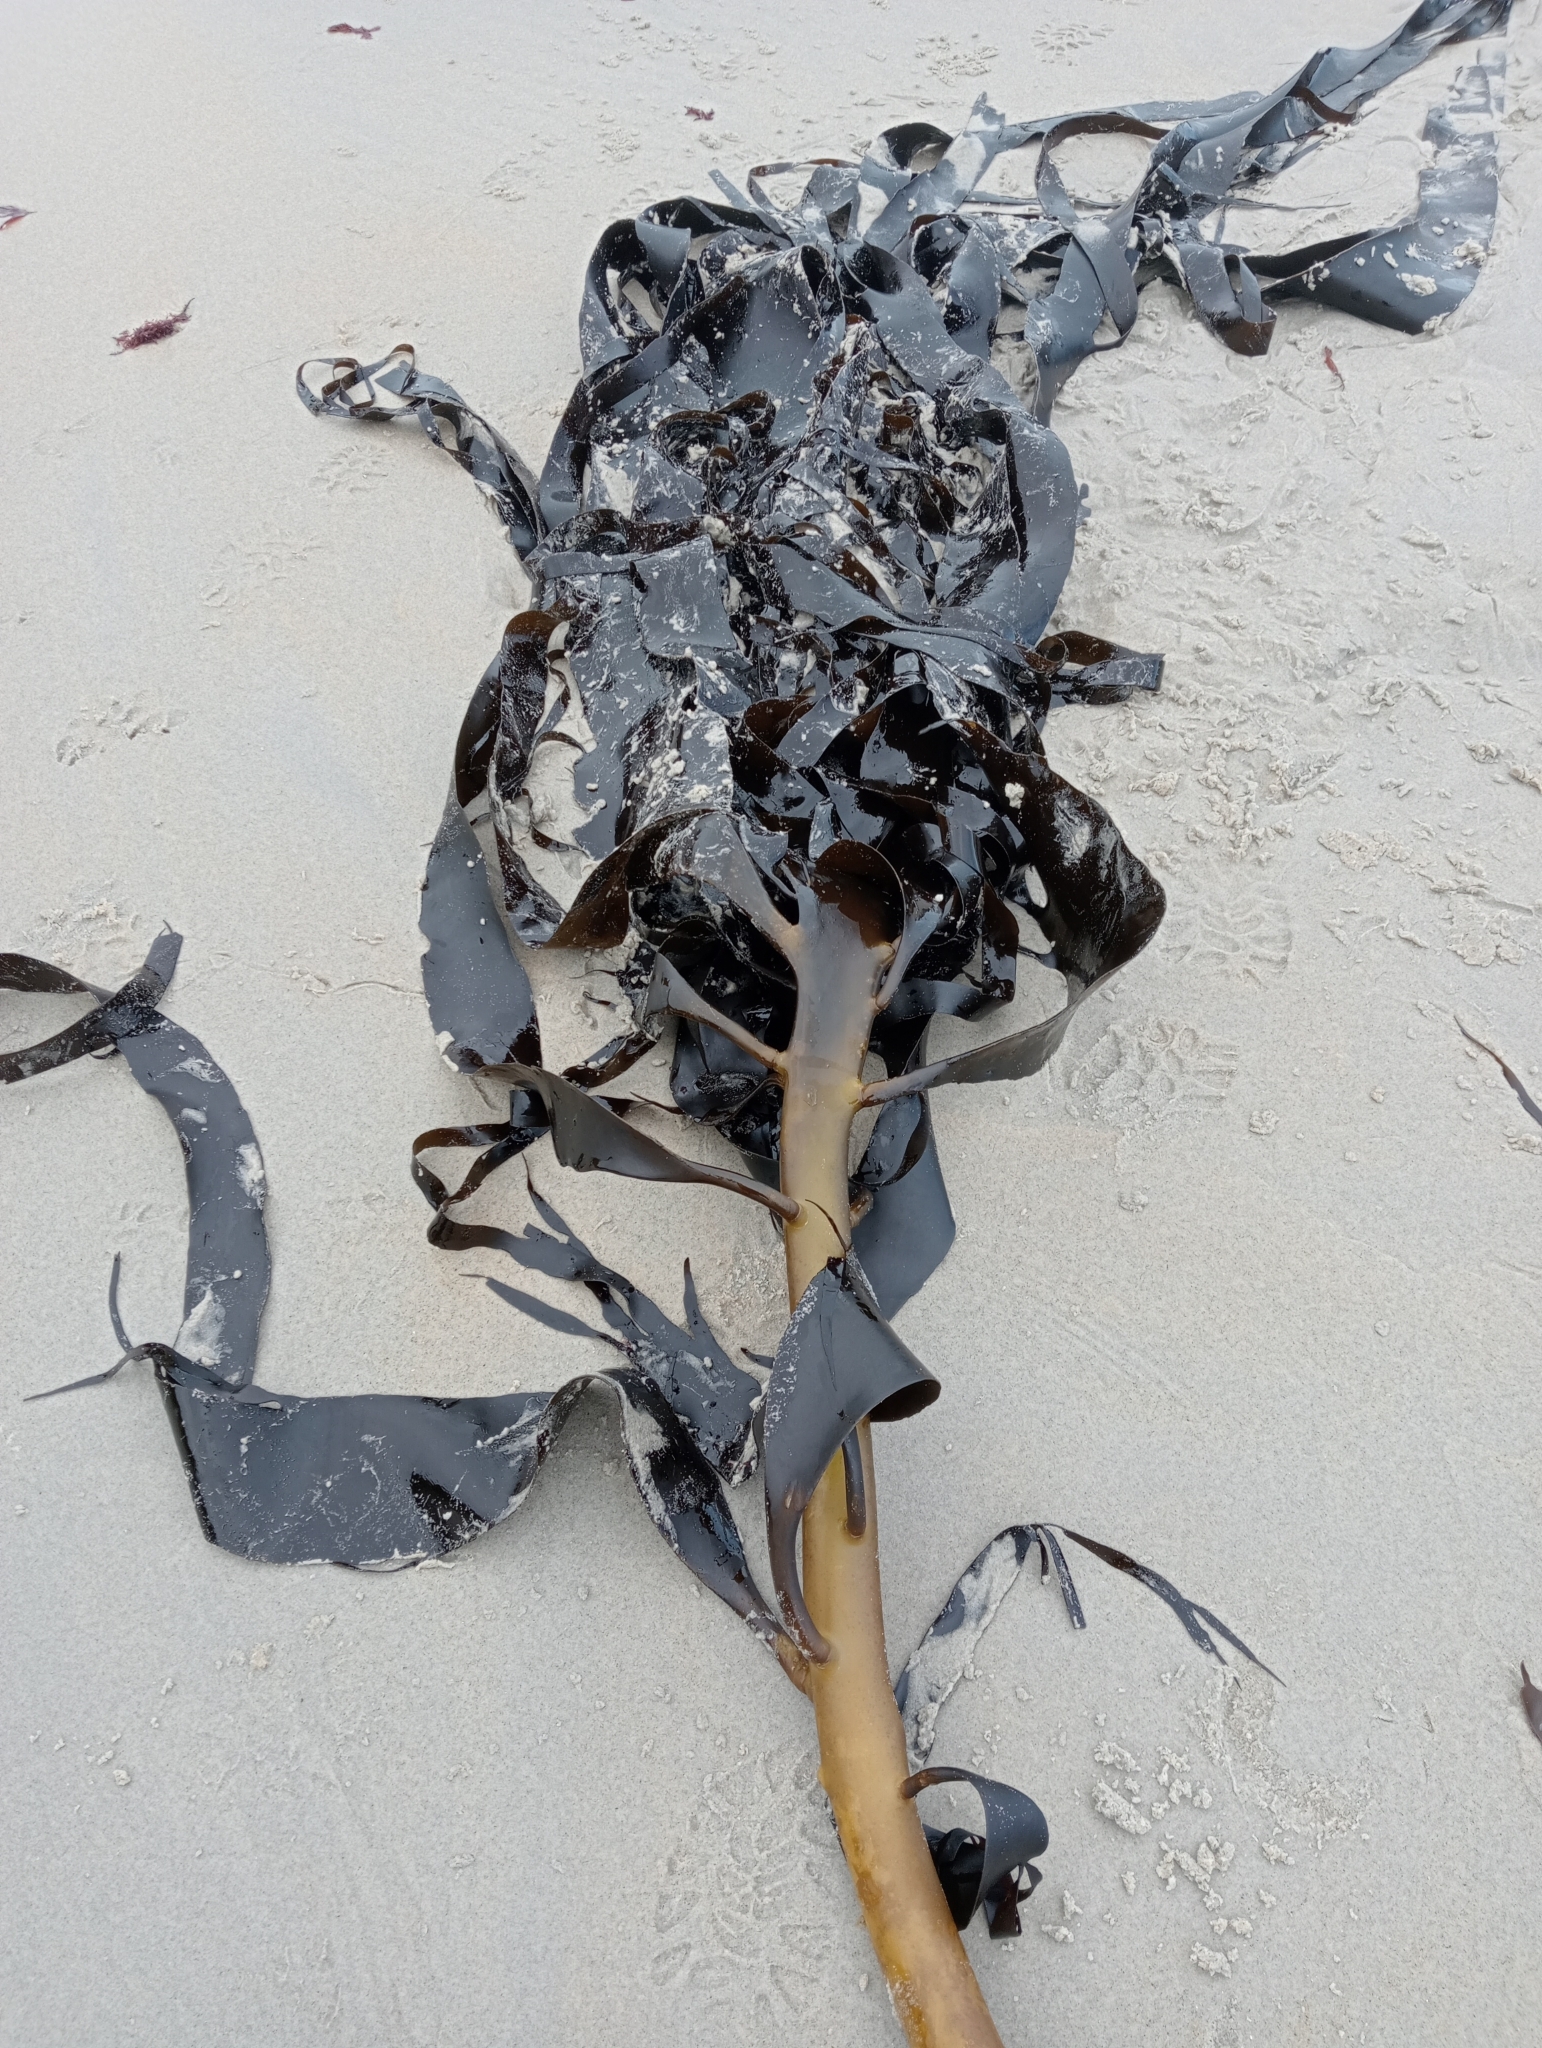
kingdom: Chromista
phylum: Ochrophyta
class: Phaeophyceae
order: Fucales
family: Durvillaeaceae
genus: Durvillaea
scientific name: Durvillaea willana
